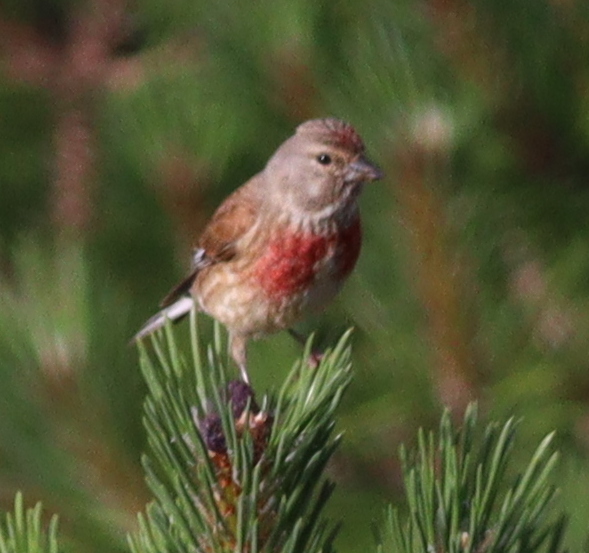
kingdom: Animalia
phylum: Chordata
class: Aves
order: Passeriformes
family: Fringillidae
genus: Linaria
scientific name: Linaria cannabina
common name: Common linnet
